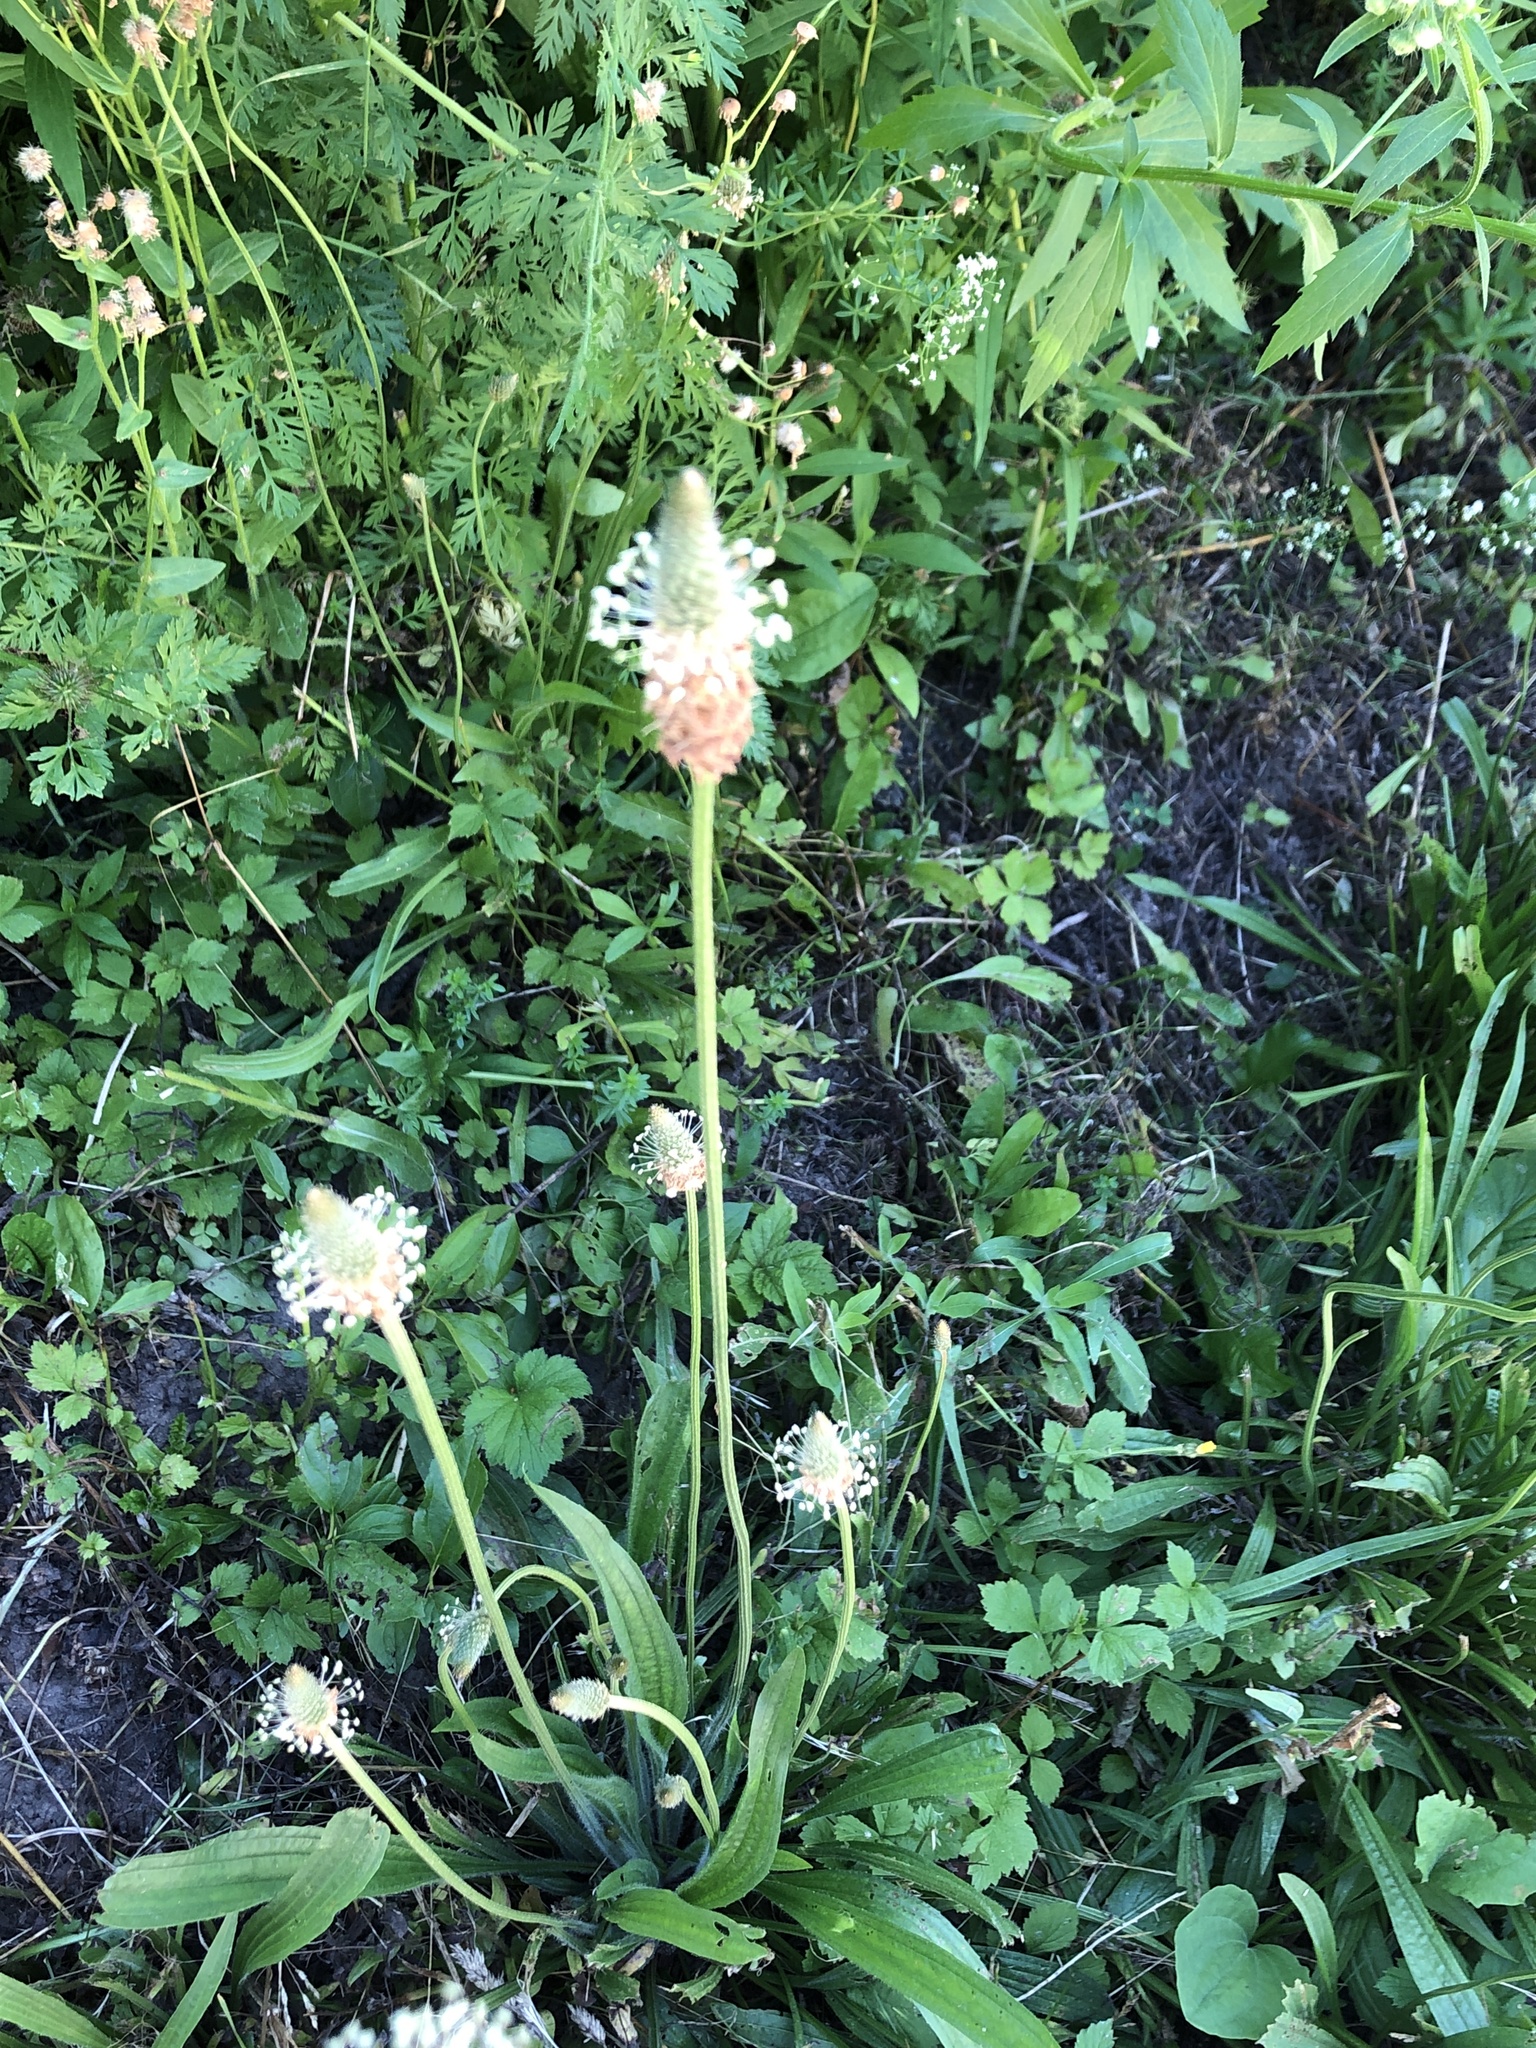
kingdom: Plantae
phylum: Tracheophyta
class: Magnoliopsida
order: Lamiales
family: Plantaginaceae
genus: Plantago
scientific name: Plantago lanceolata
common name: Ribwort plantain
